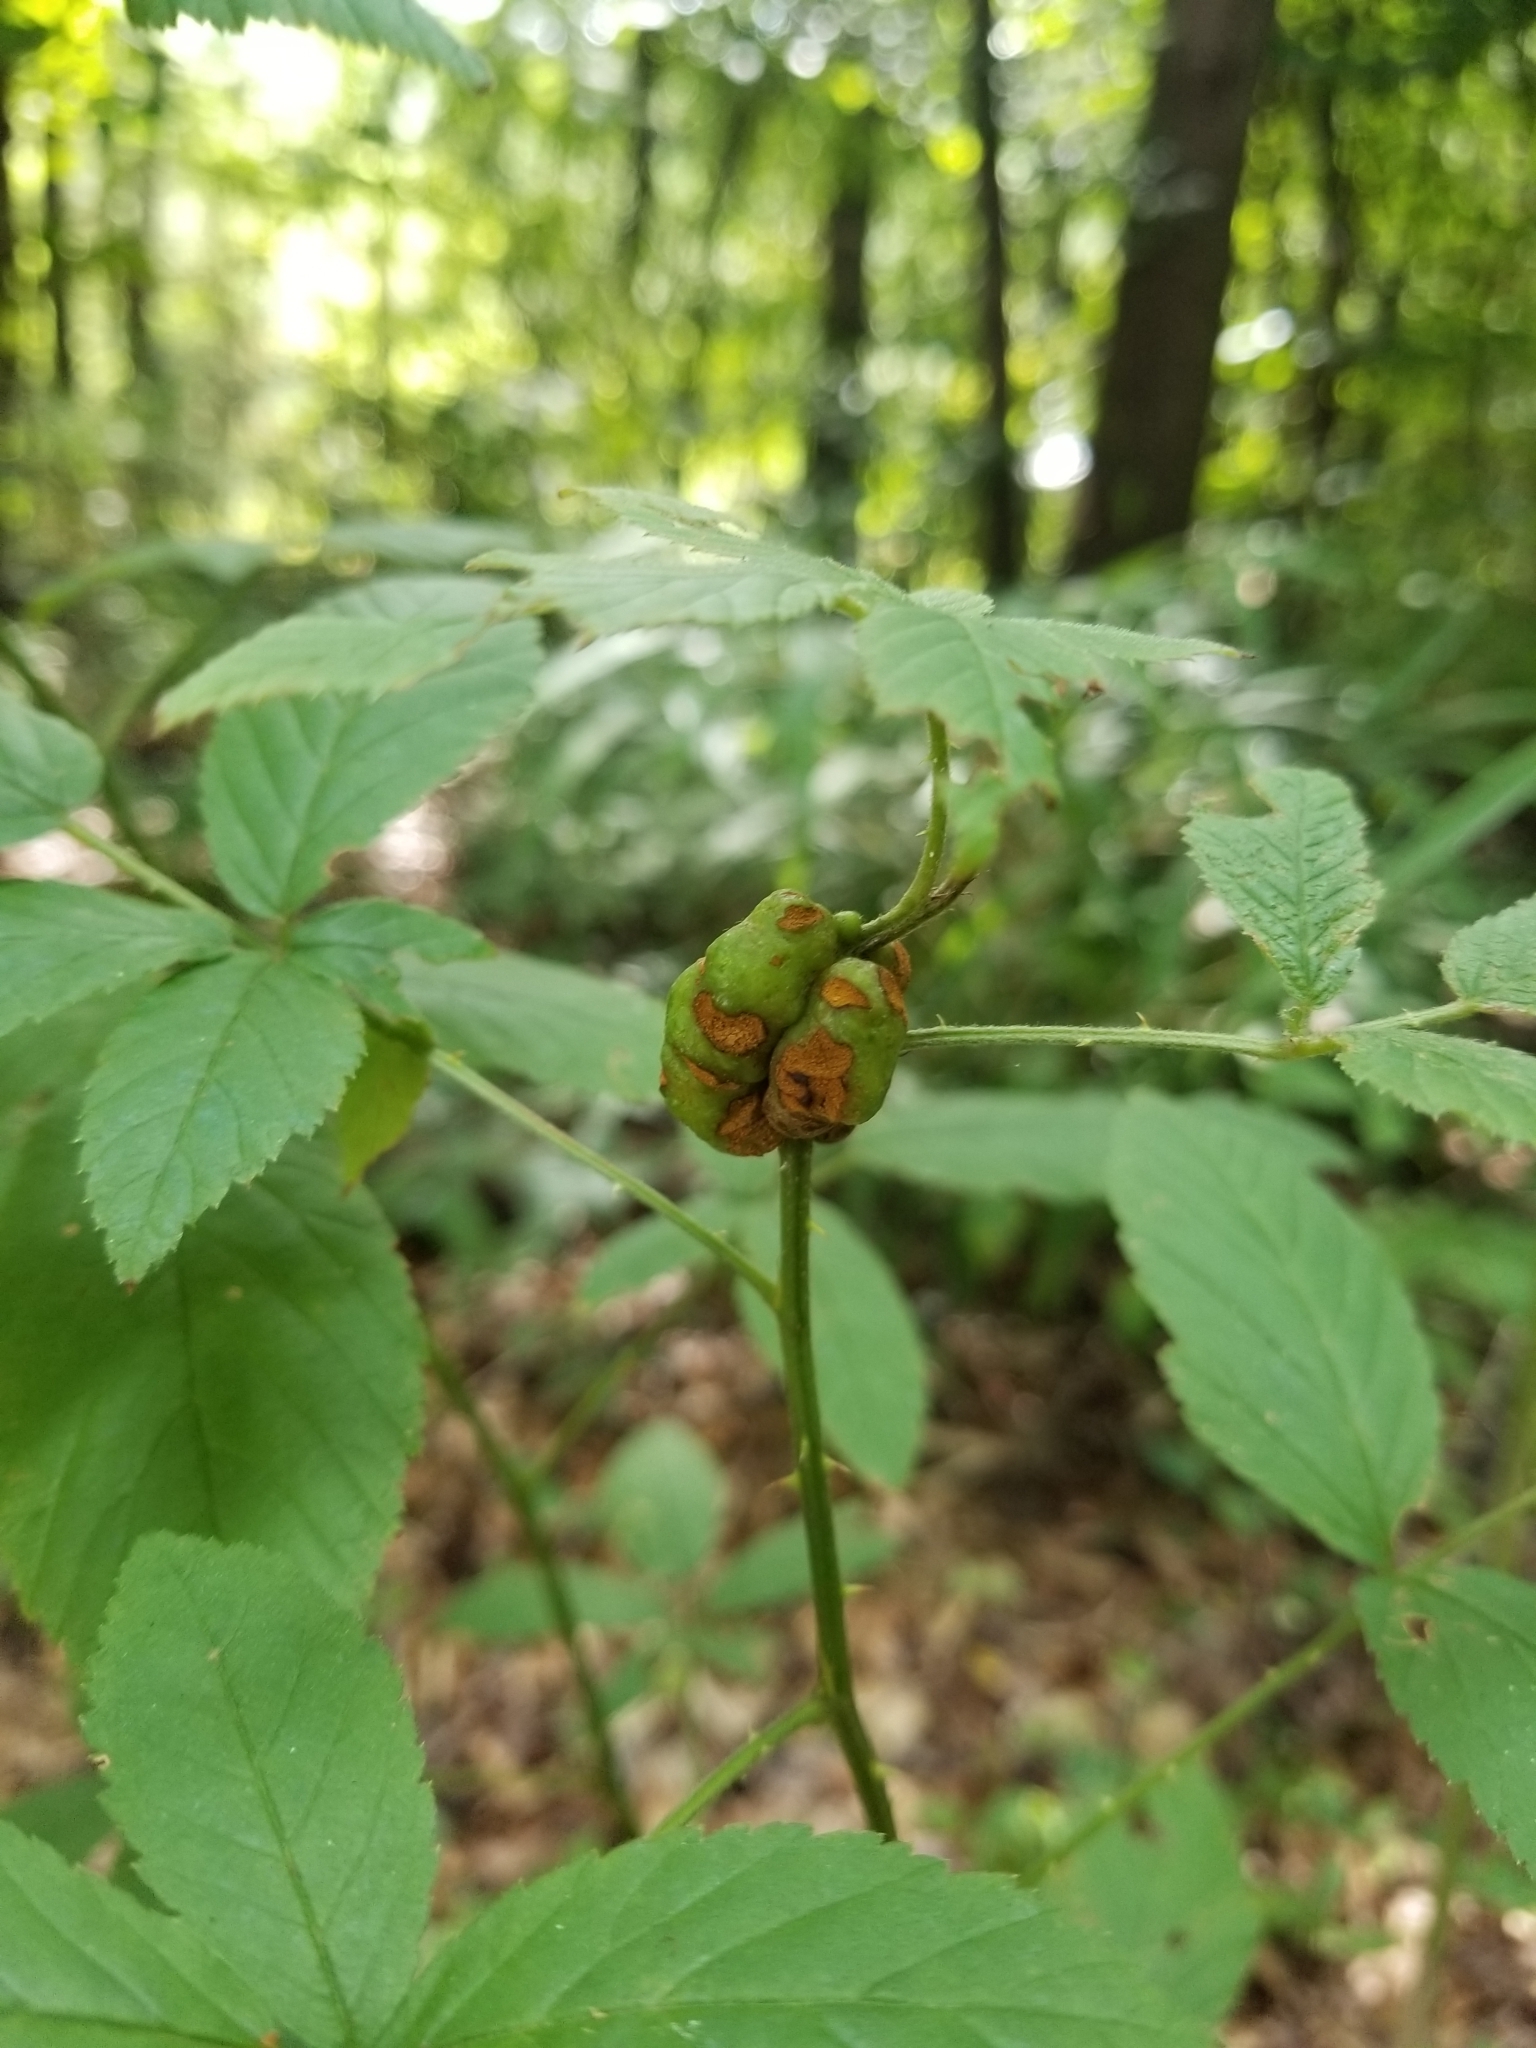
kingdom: Animalia
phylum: Arthropoda
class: Insecta
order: Hymenoptera
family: Cynipidae
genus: Diastrophus
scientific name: Diastrophus
